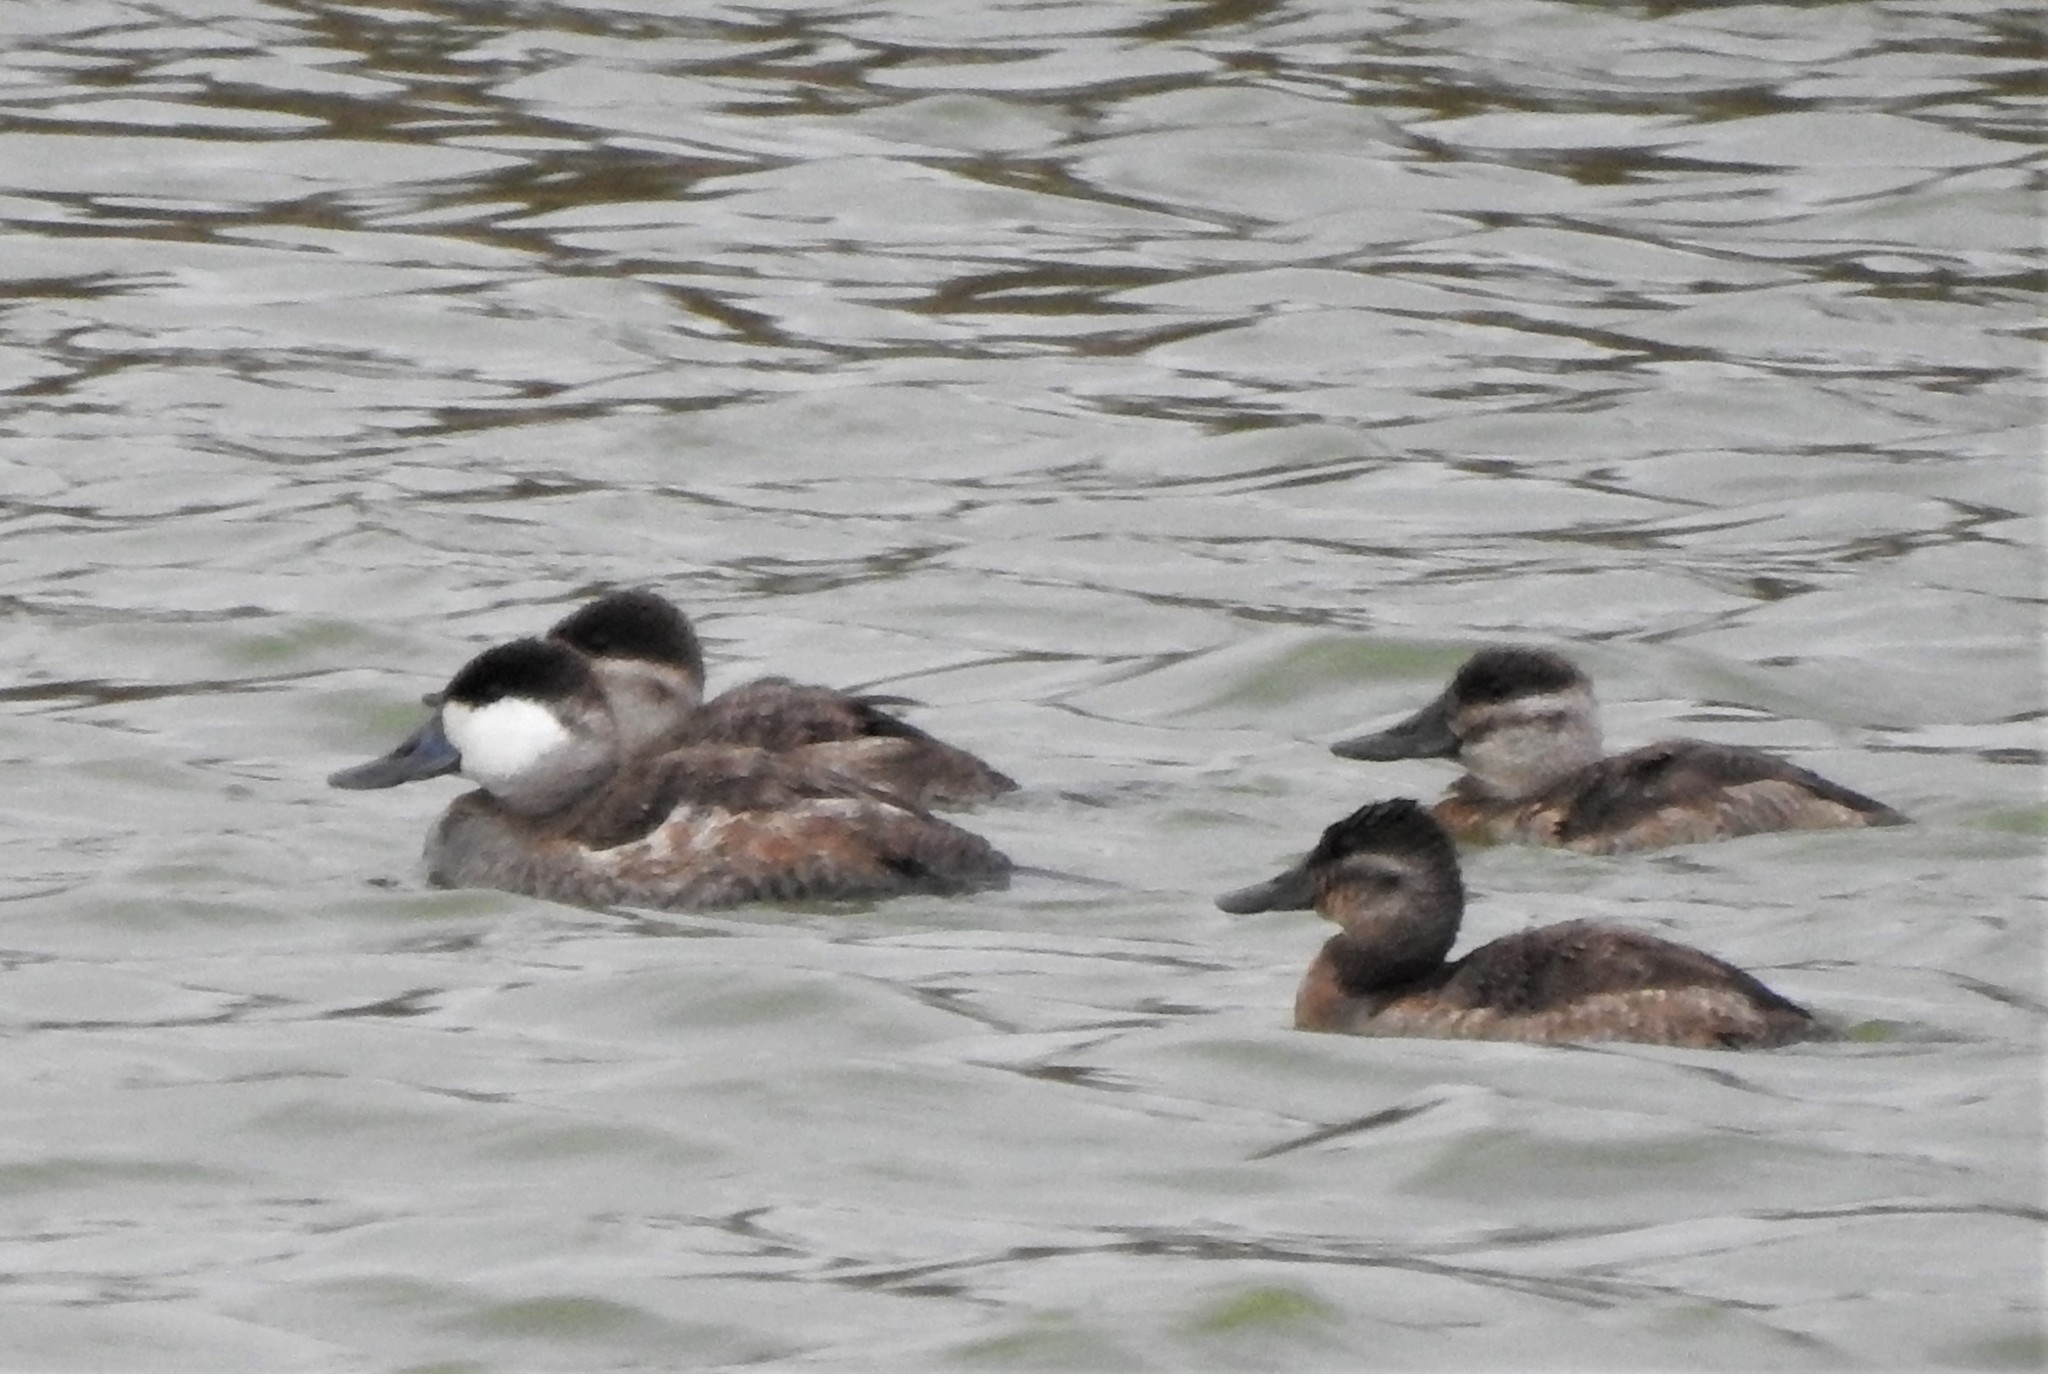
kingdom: Animalia
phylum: Chordata
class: Aves
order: Anseriformes
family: Anatidae
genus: Oxyura
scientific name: Oxyura jamaicensis
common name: Ruddy duck
